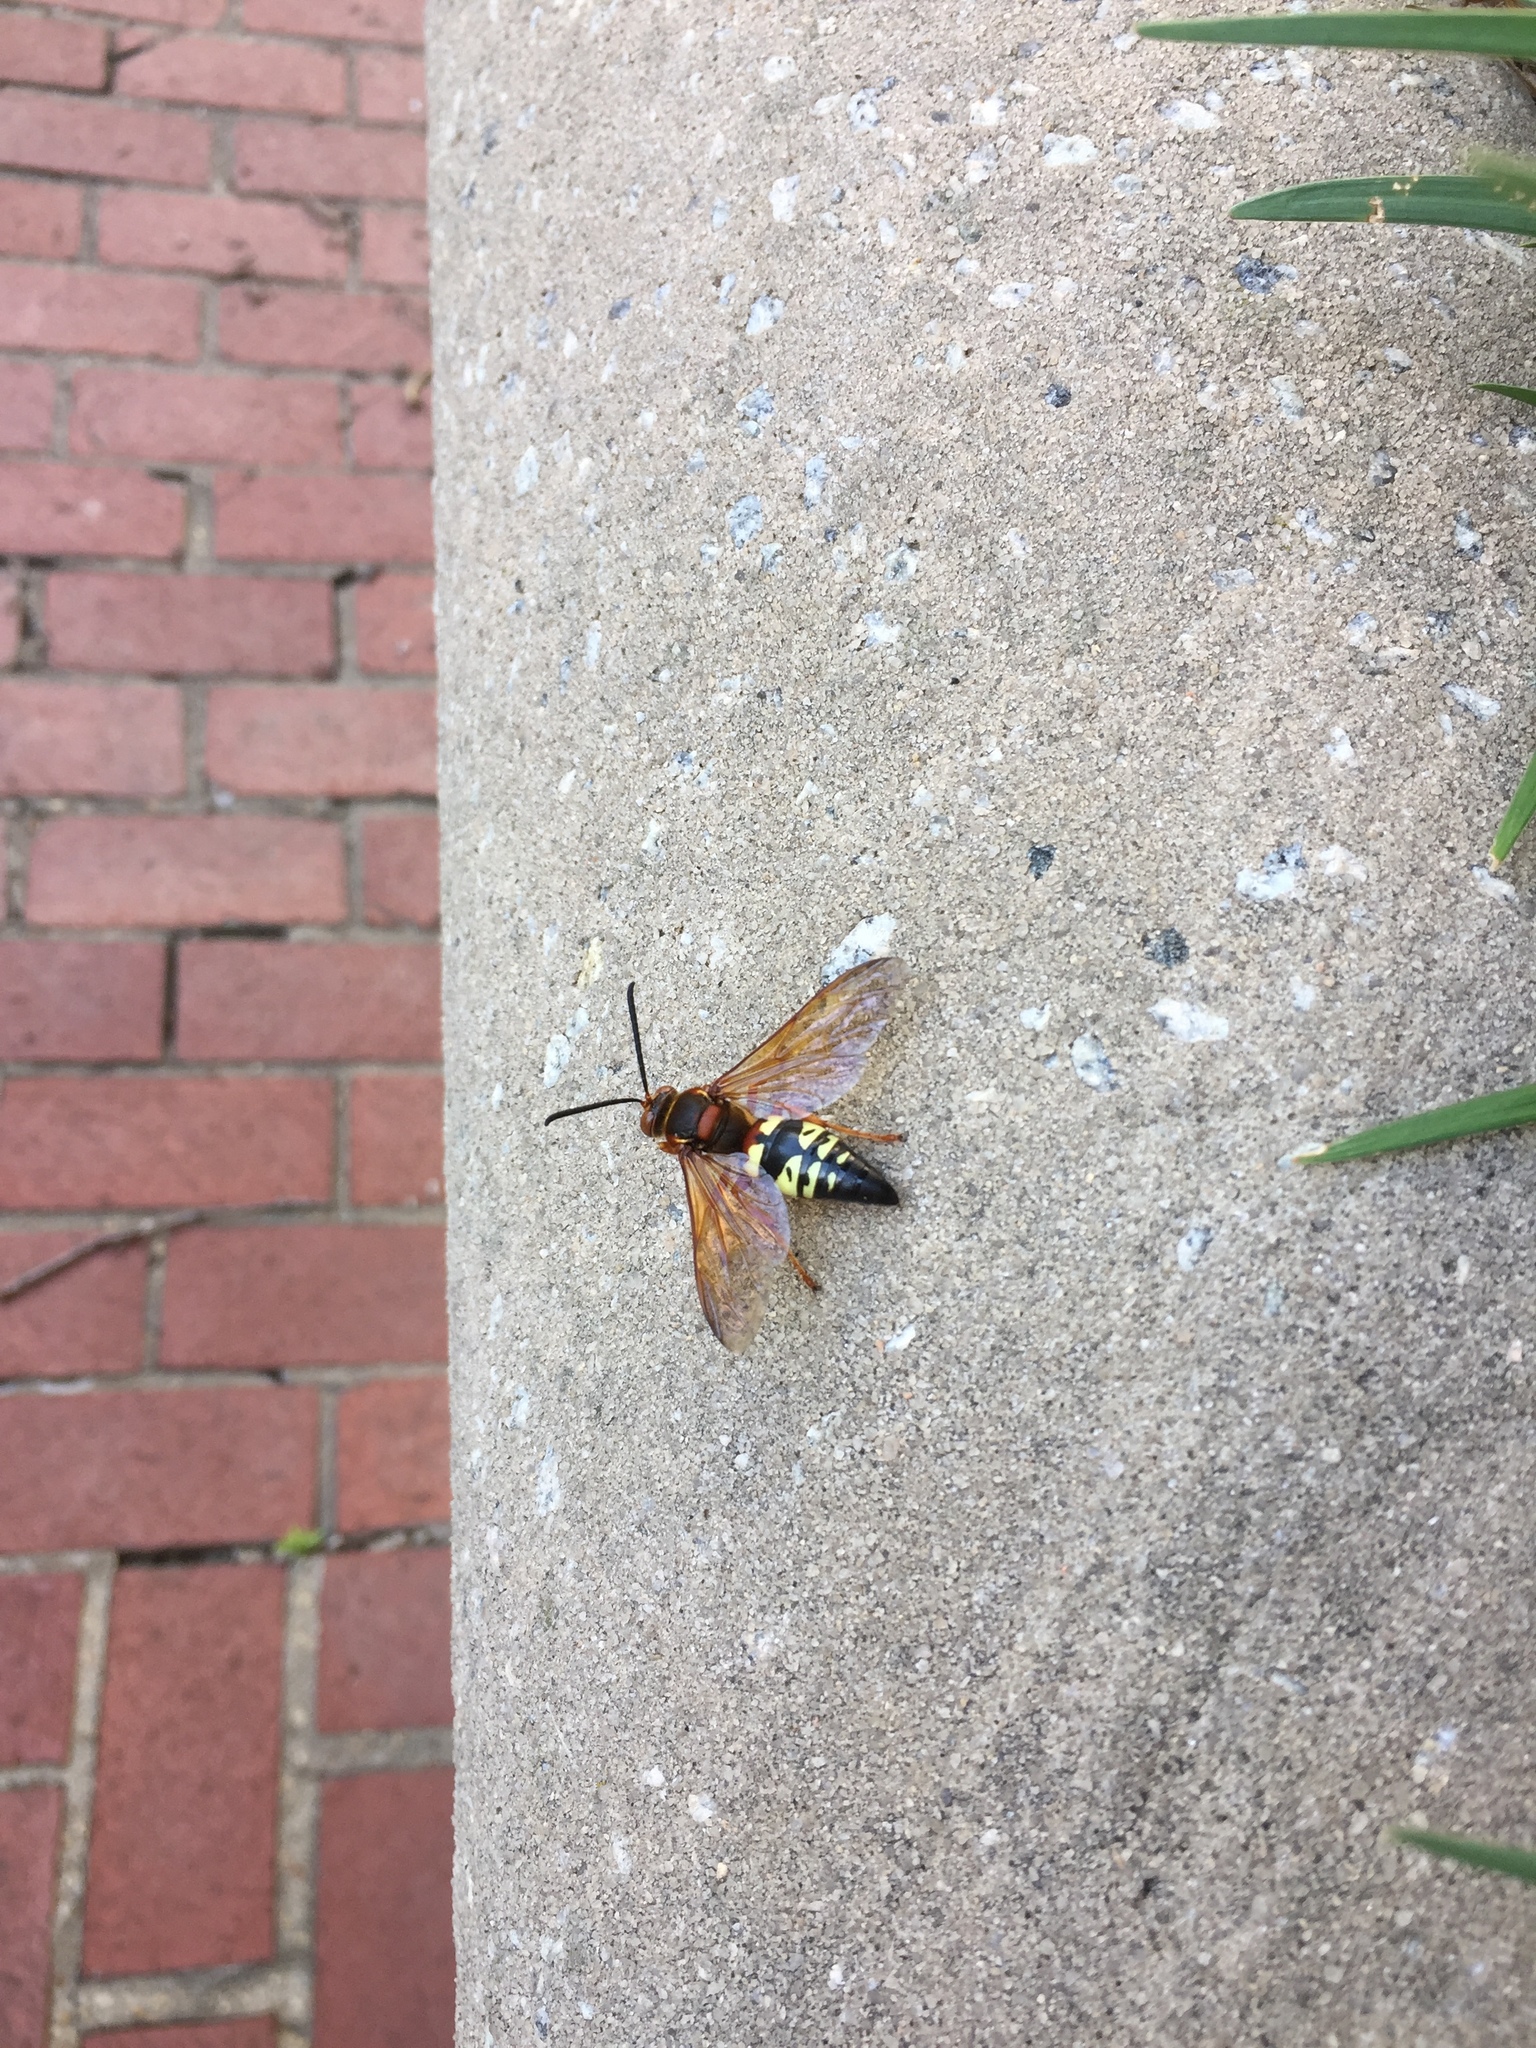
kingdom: Animalia
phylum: Arthropoda
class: Insecta
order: Hymenoptera
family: Crabronidae
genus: Sphecius
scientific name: Sphecius speciosus
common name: Cicada killer
